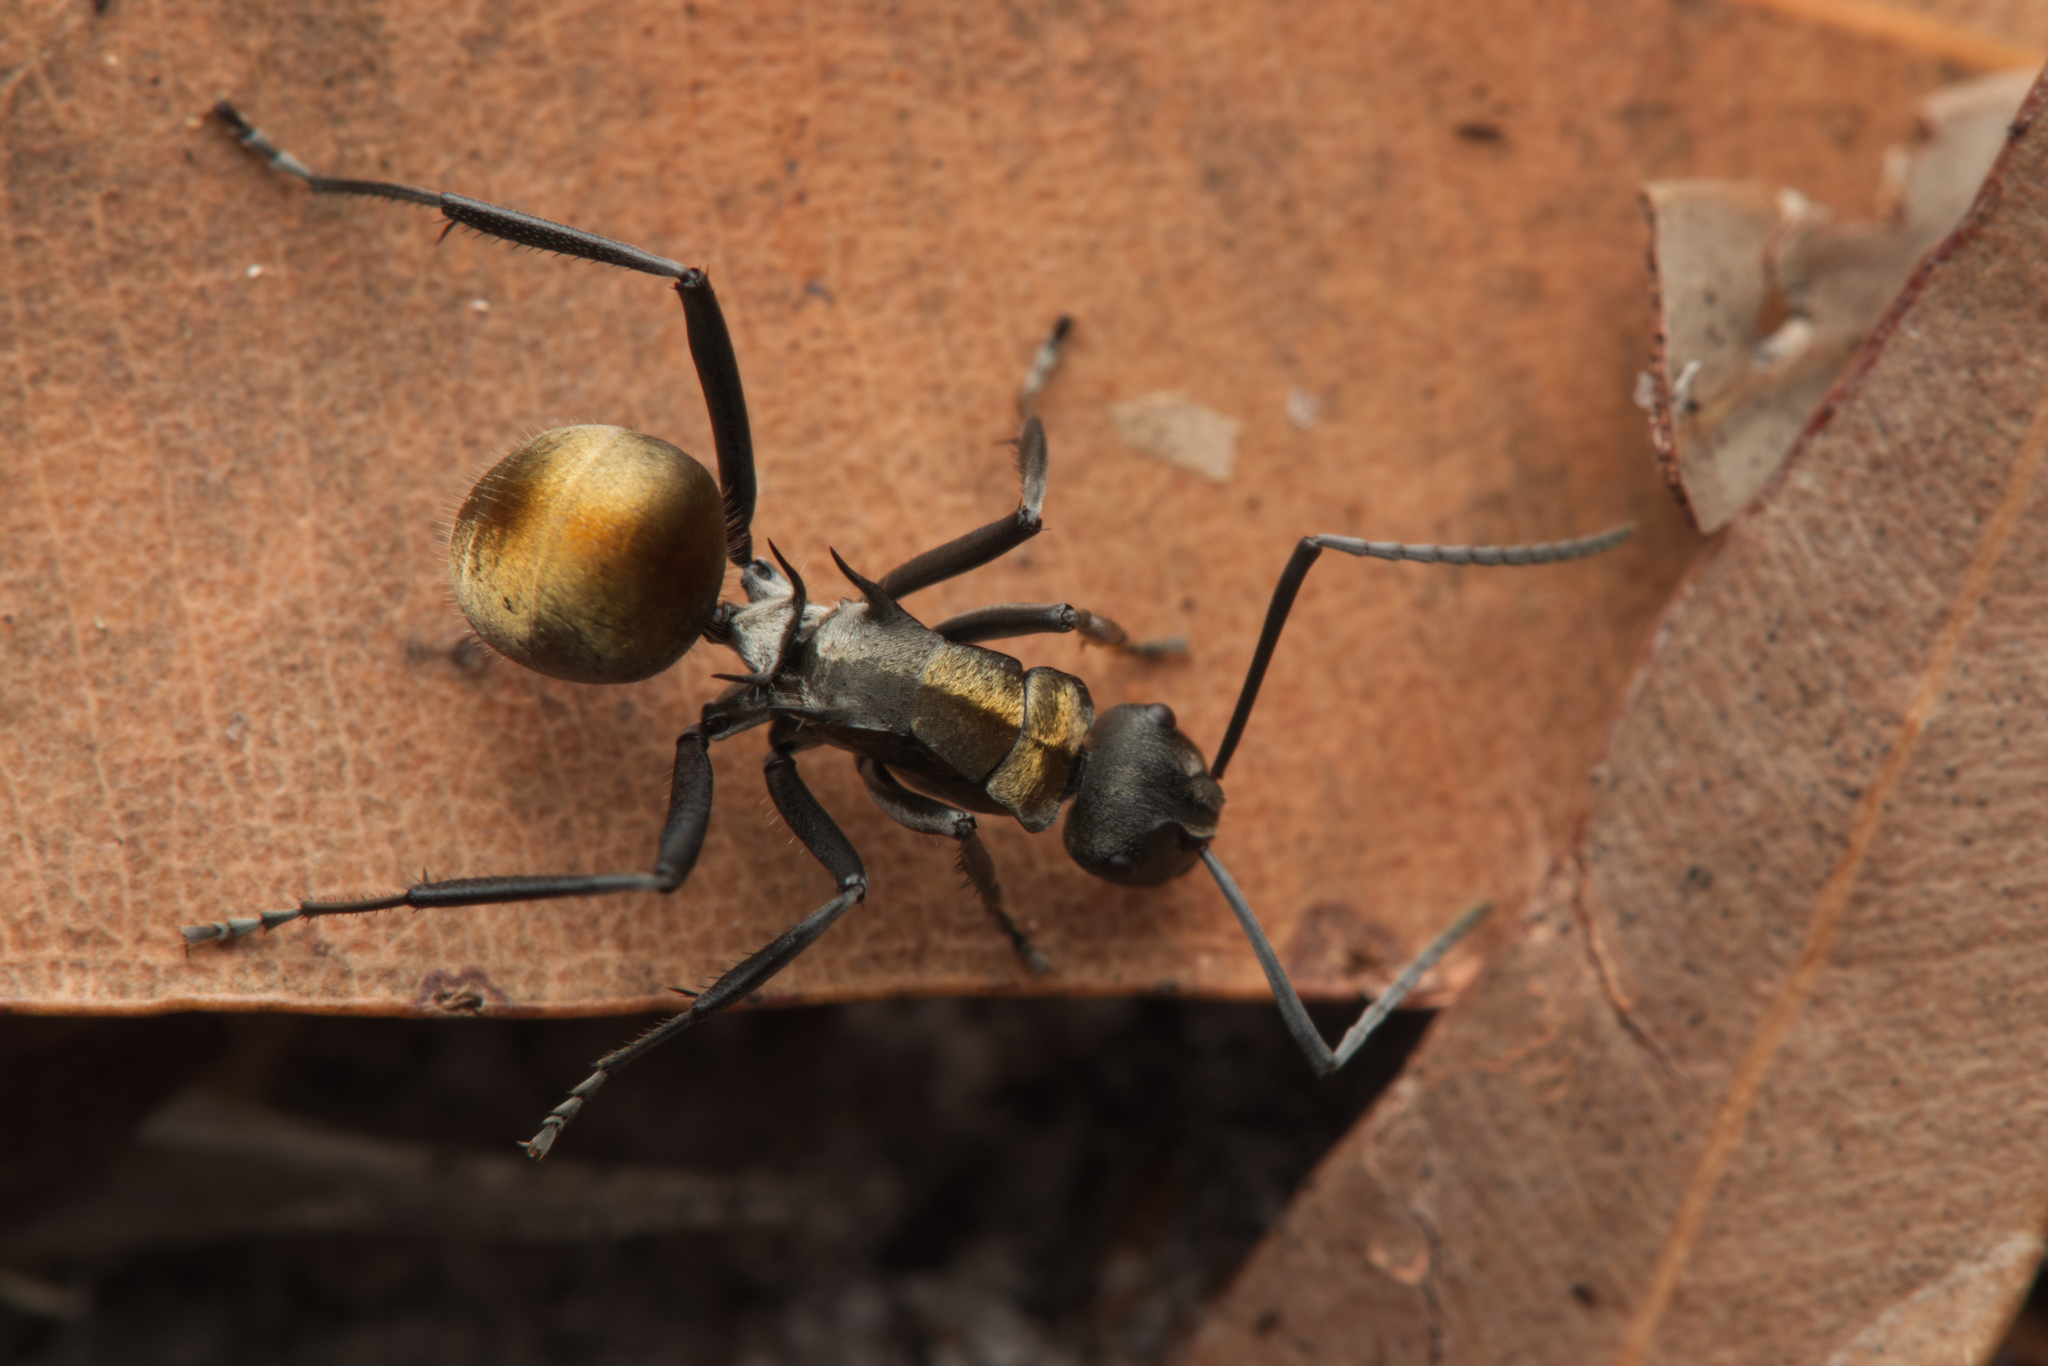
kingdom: Animalia
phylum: Arthropoda
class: Insecta
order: Hymenoptera
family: Formicidae
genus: Polyrhachis
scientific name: Polyrhachis ammon
